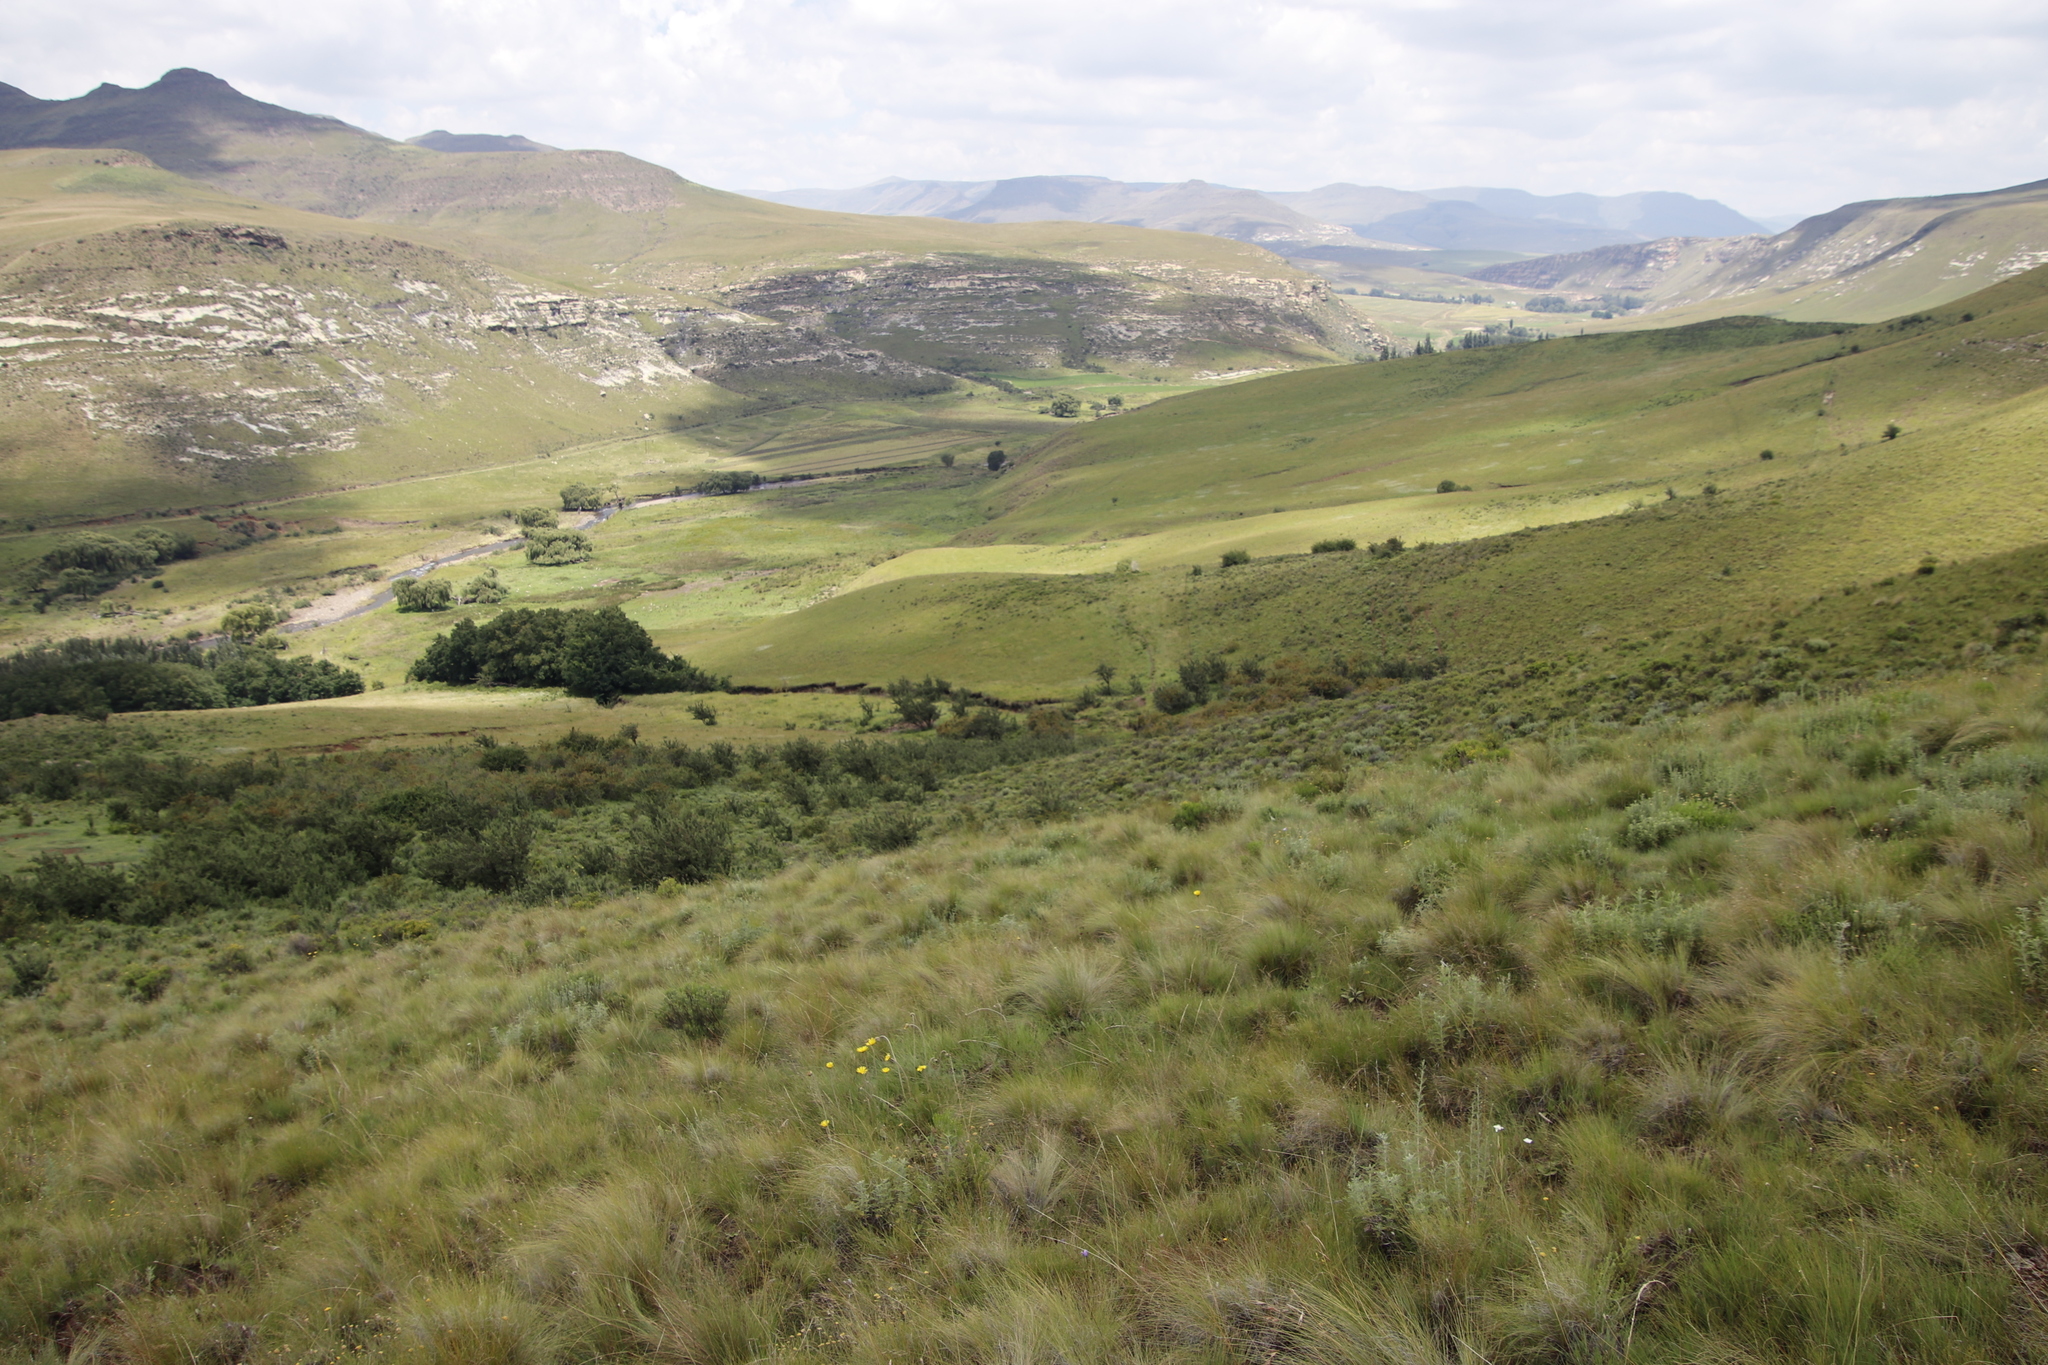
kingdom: Plantae
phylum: Tracheophyta
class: Magnoliopsida
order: Asterales
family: Asteraceae
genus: Haplocarpha
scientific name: Haplocarpha scaposa
